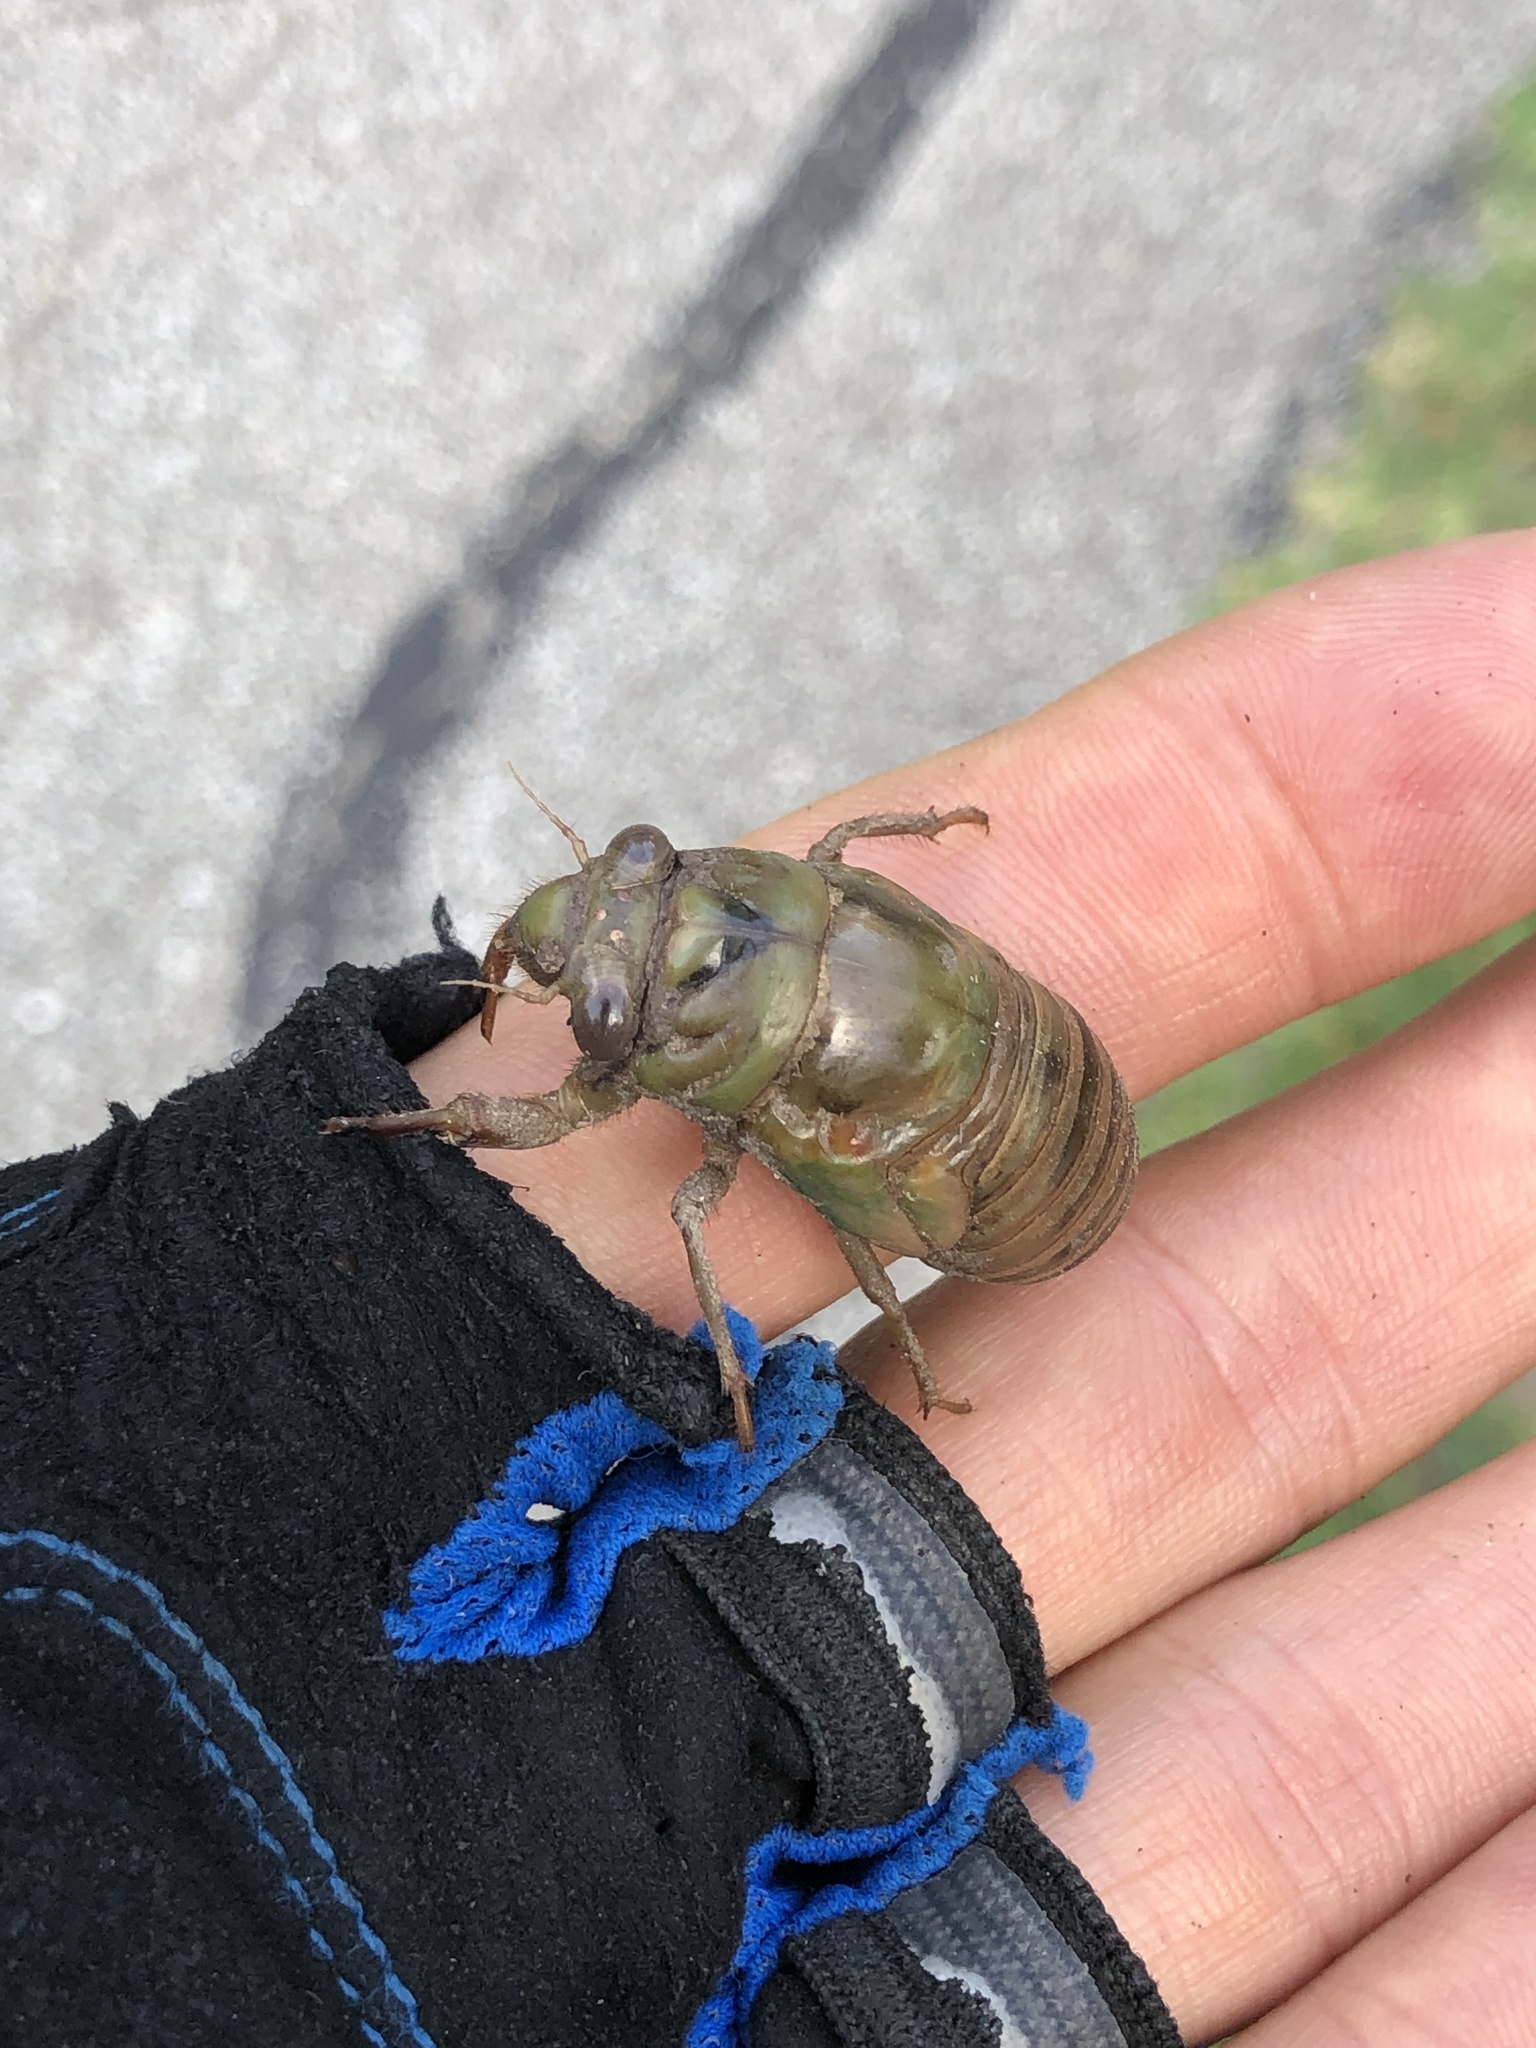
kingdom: Animalia
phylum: Arthropoda
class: Insecta
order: Hemiptera
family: Cicadidae
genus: Megatibicen
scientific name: Megatibicen resh
